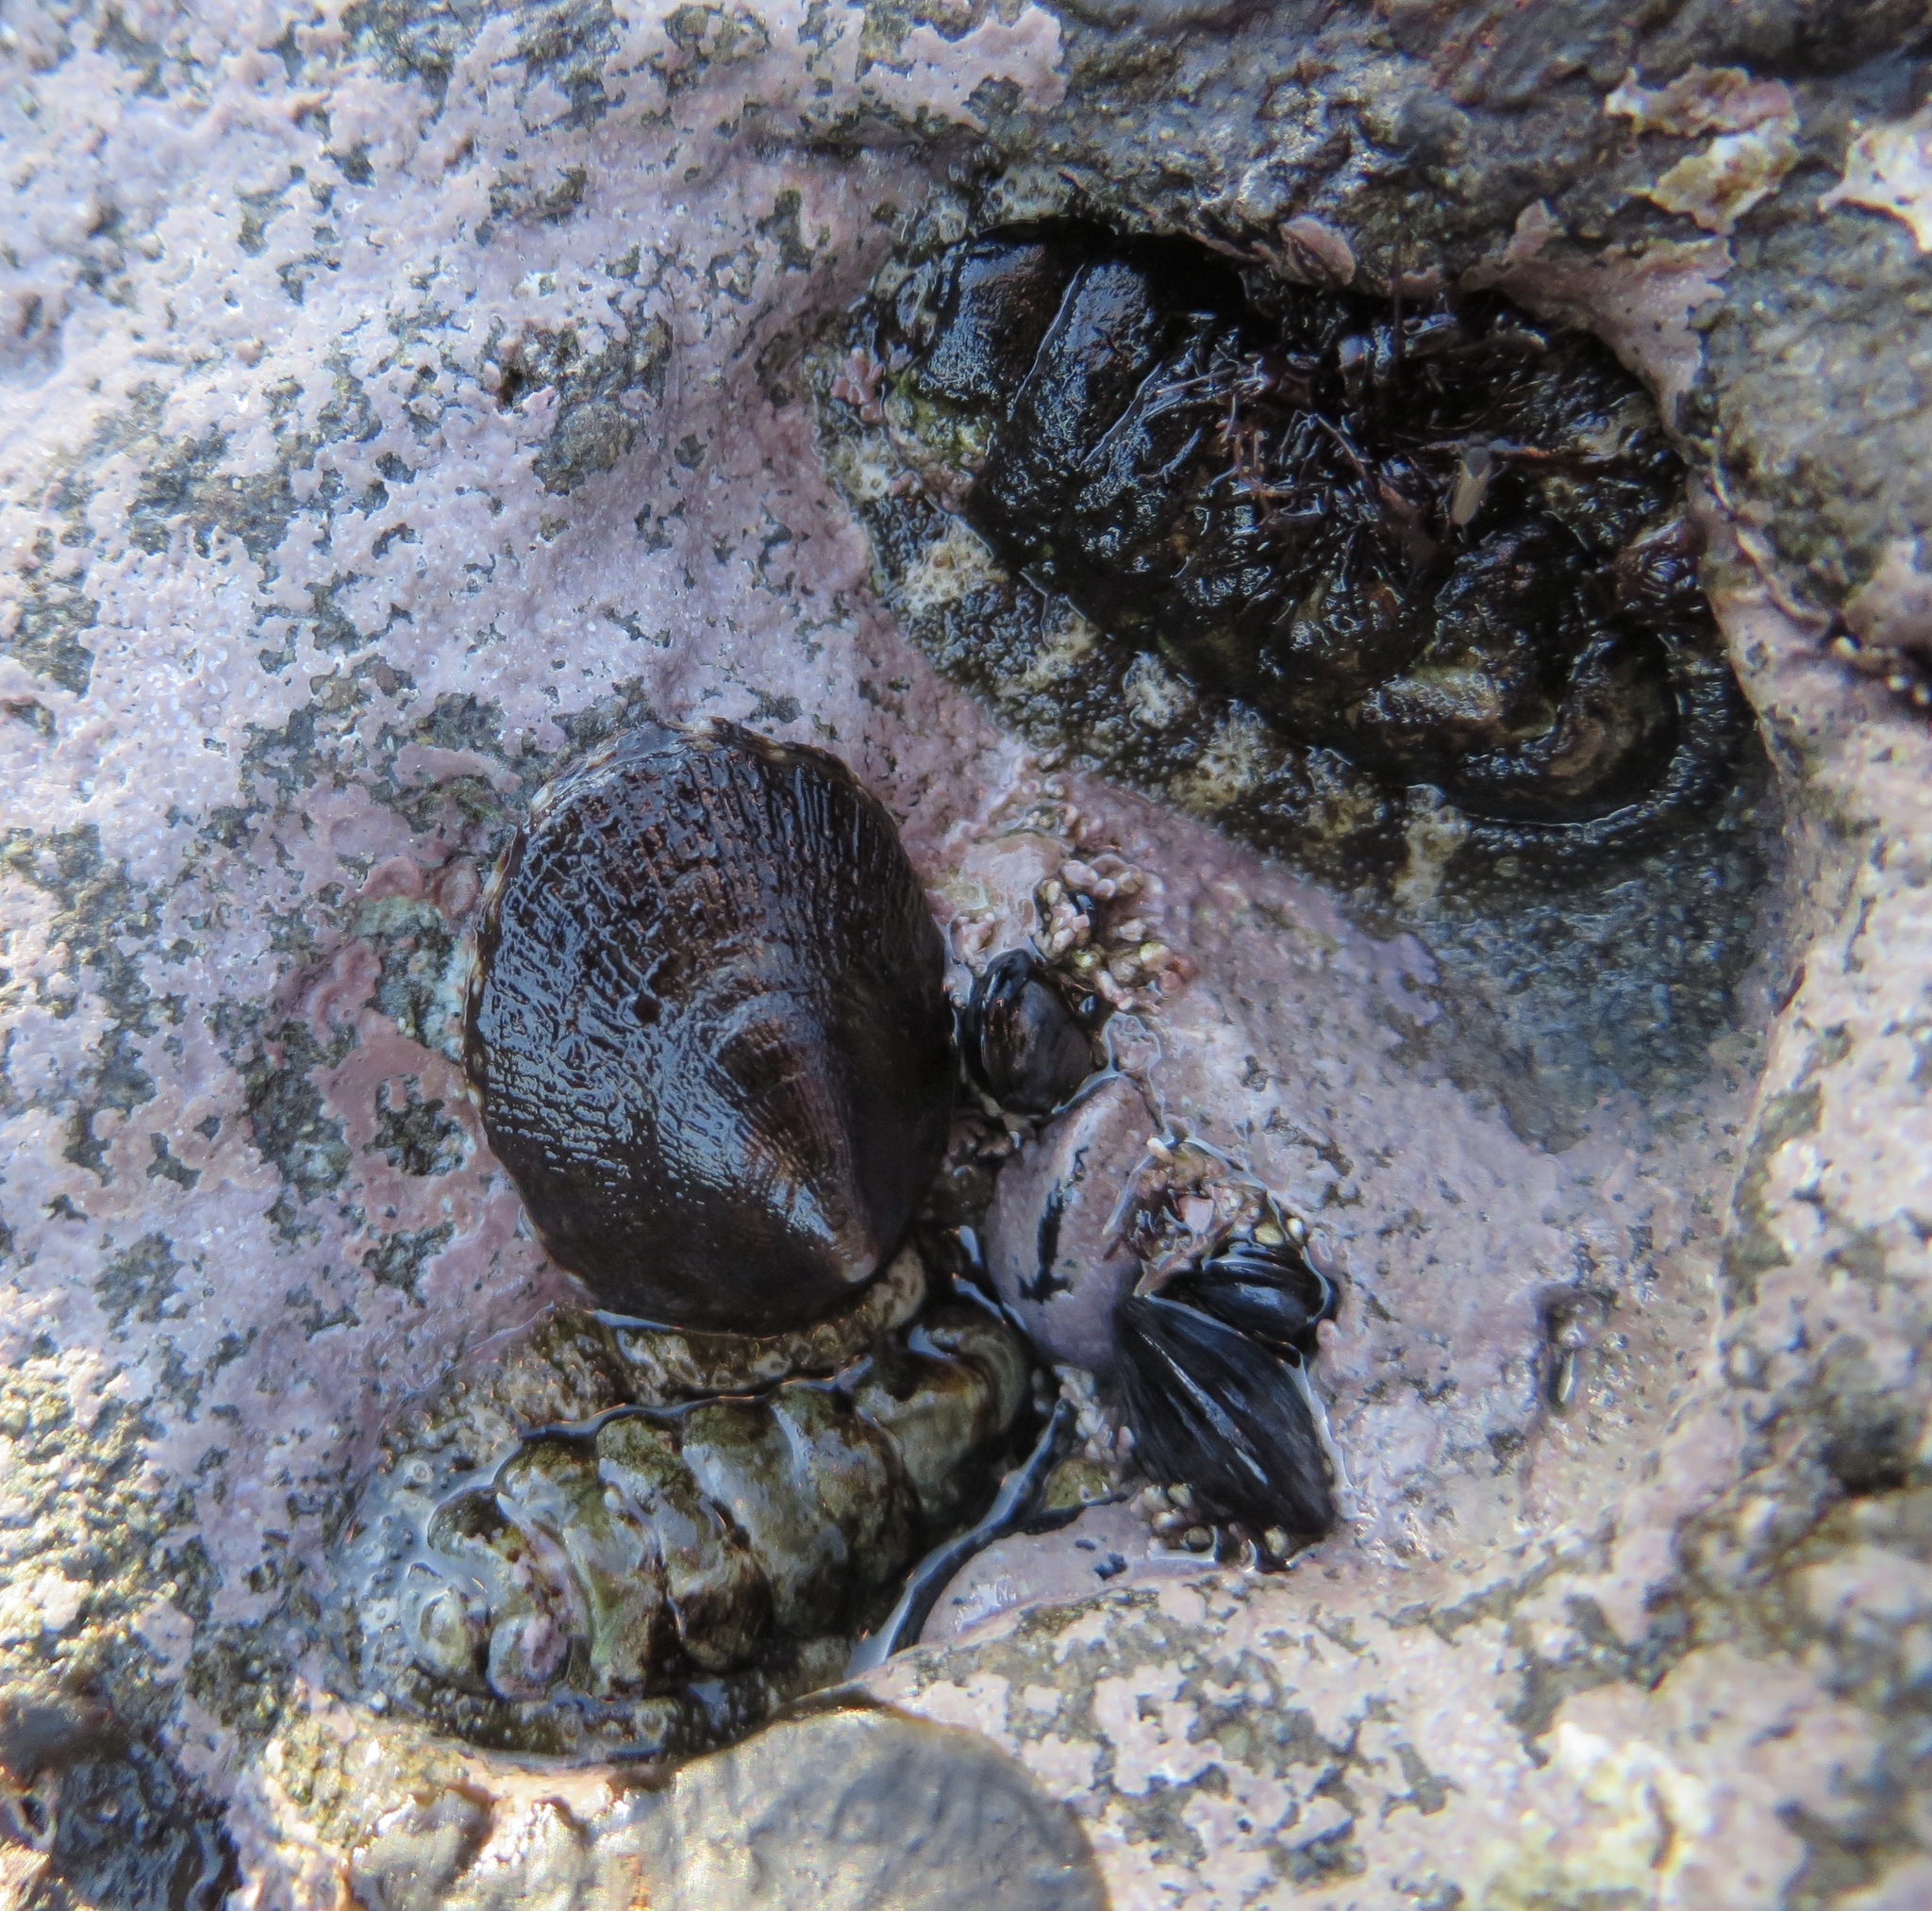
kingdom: Animalia
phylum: Mollusca
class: Polyplacophora
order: Chitonida
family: Tonicellidae
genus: Nuttallina
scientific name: Nuttallina californica
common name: California nuttall chiton
